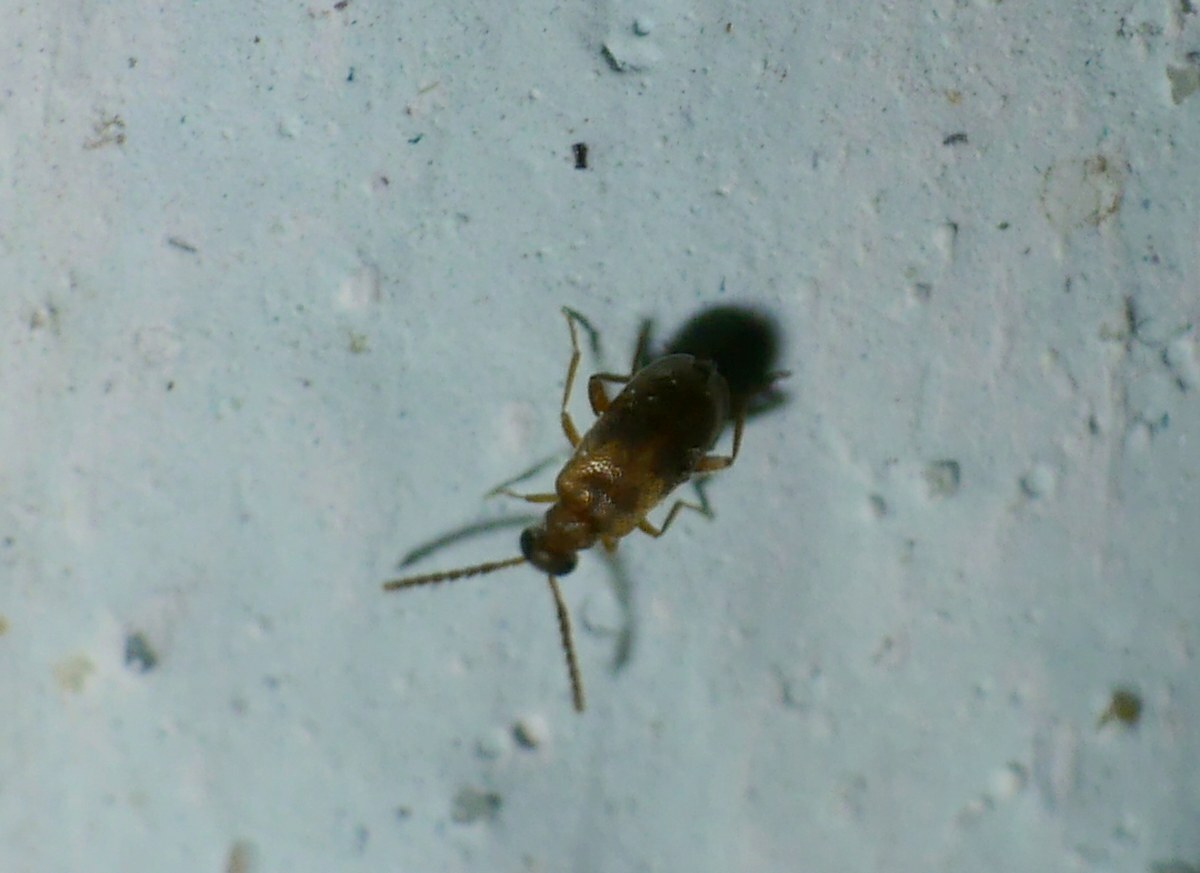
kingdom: Animalia
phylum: Arthropoda
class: Insecta
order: Coleoptera
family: Aderidae
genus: Aderus
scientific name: Aderus populneus
